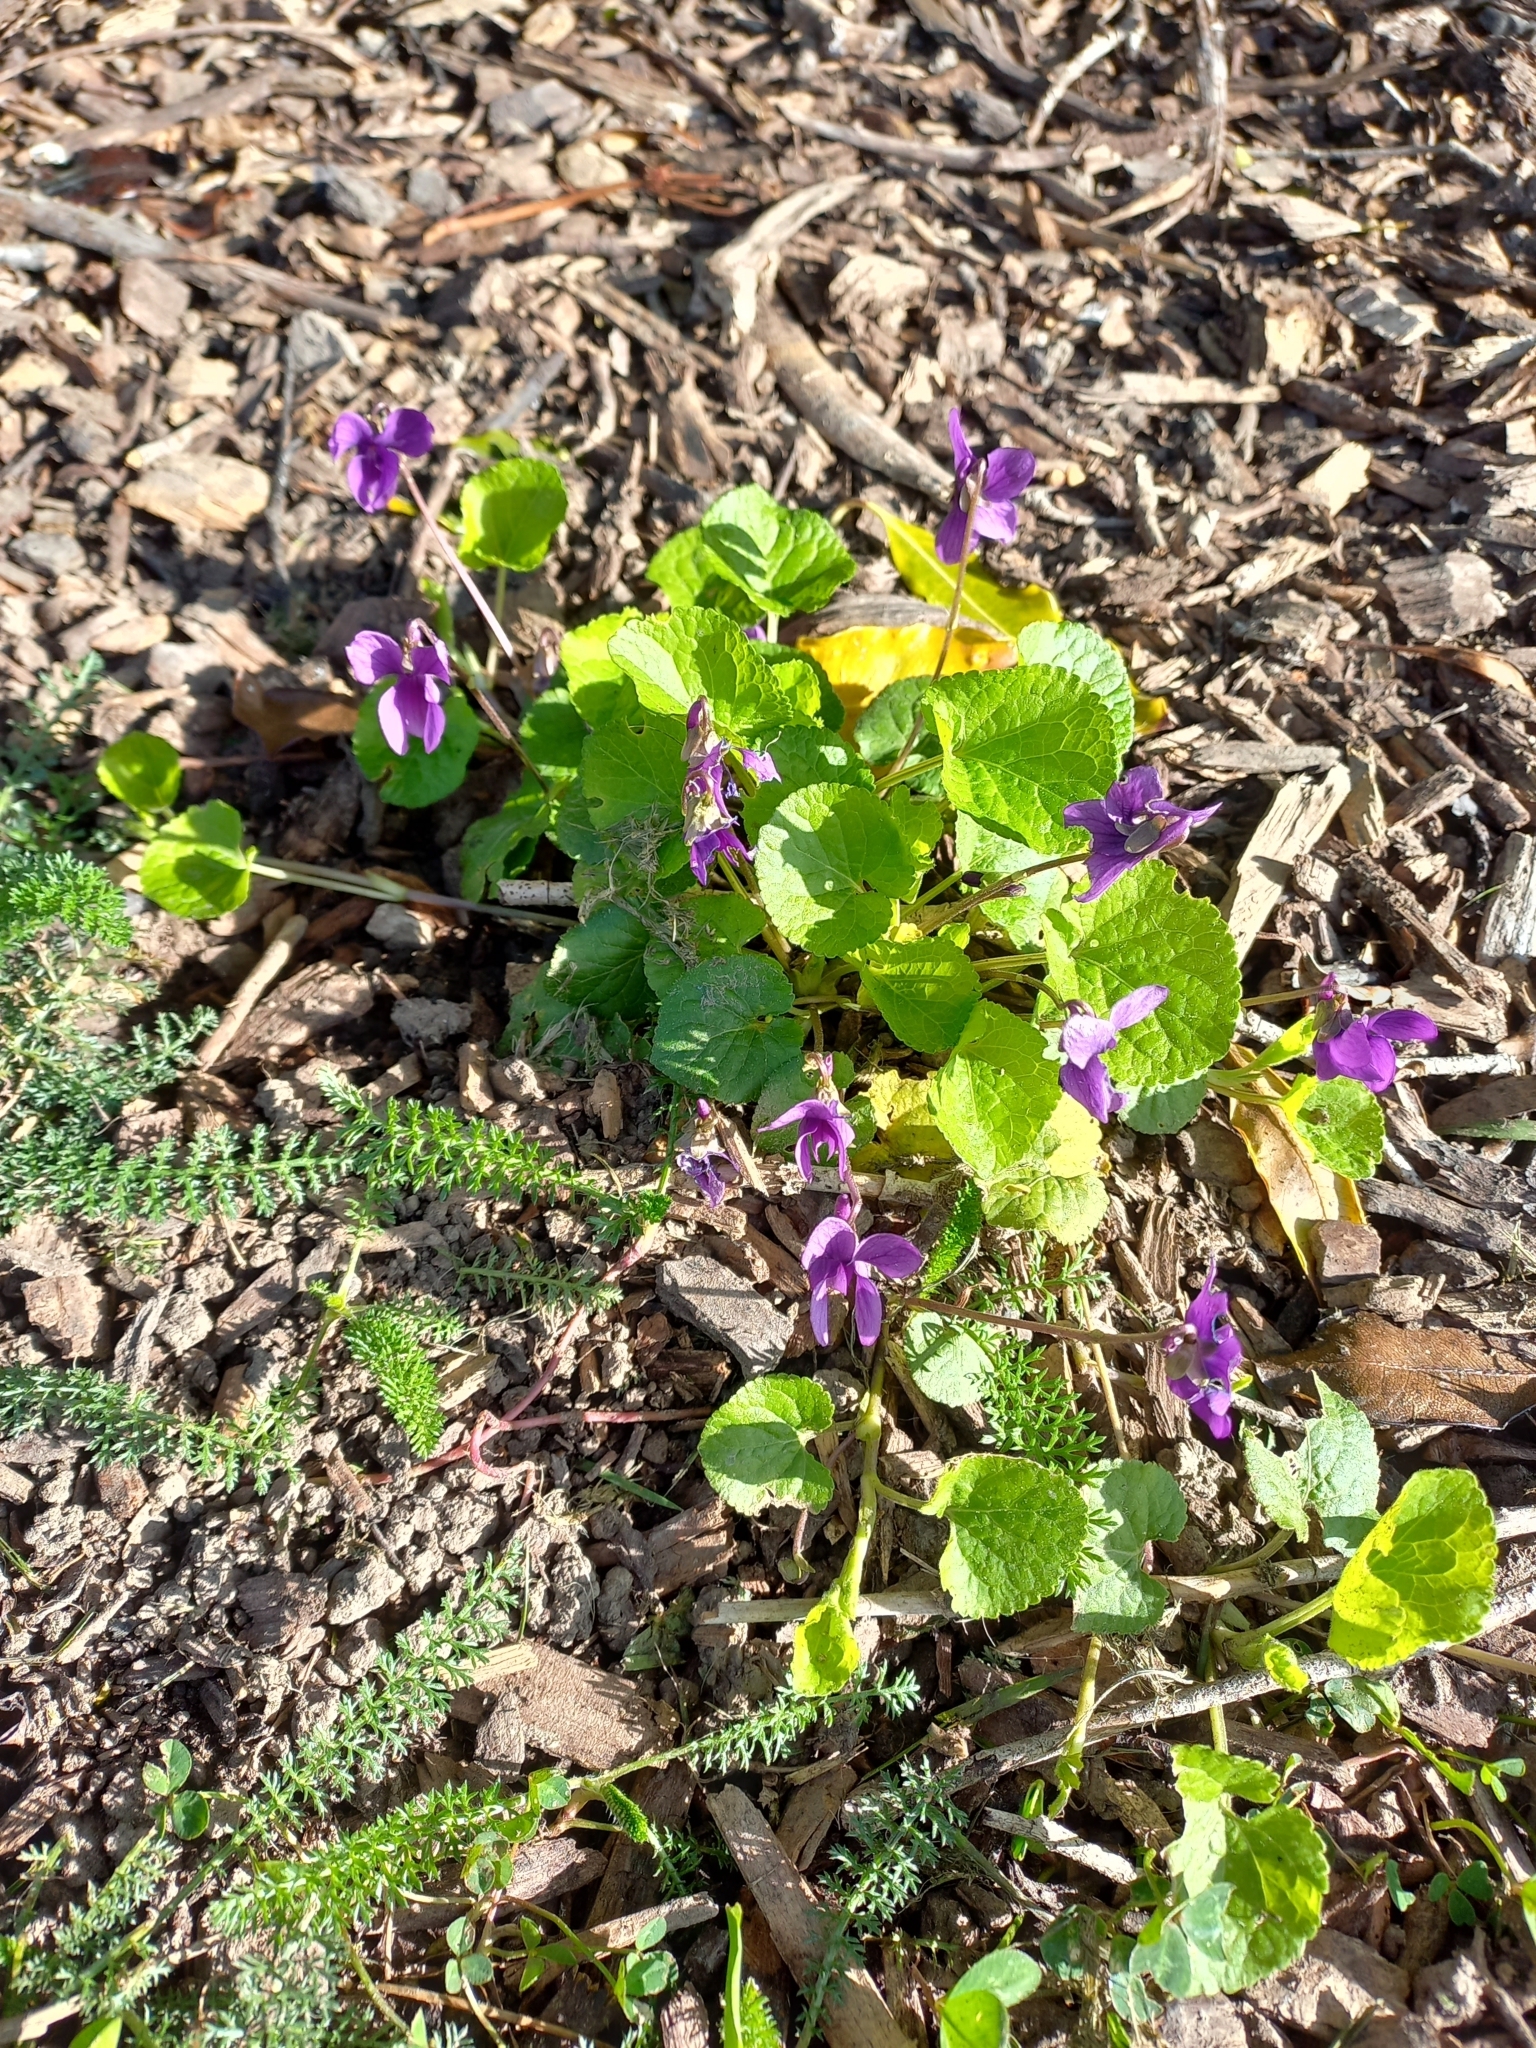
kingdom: Plantae
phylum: Tracheophyta
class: Magnoliopsida
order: Malpighiales
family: Violaceae
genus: Viola
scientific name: Viola odorata
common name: Sweet violet
